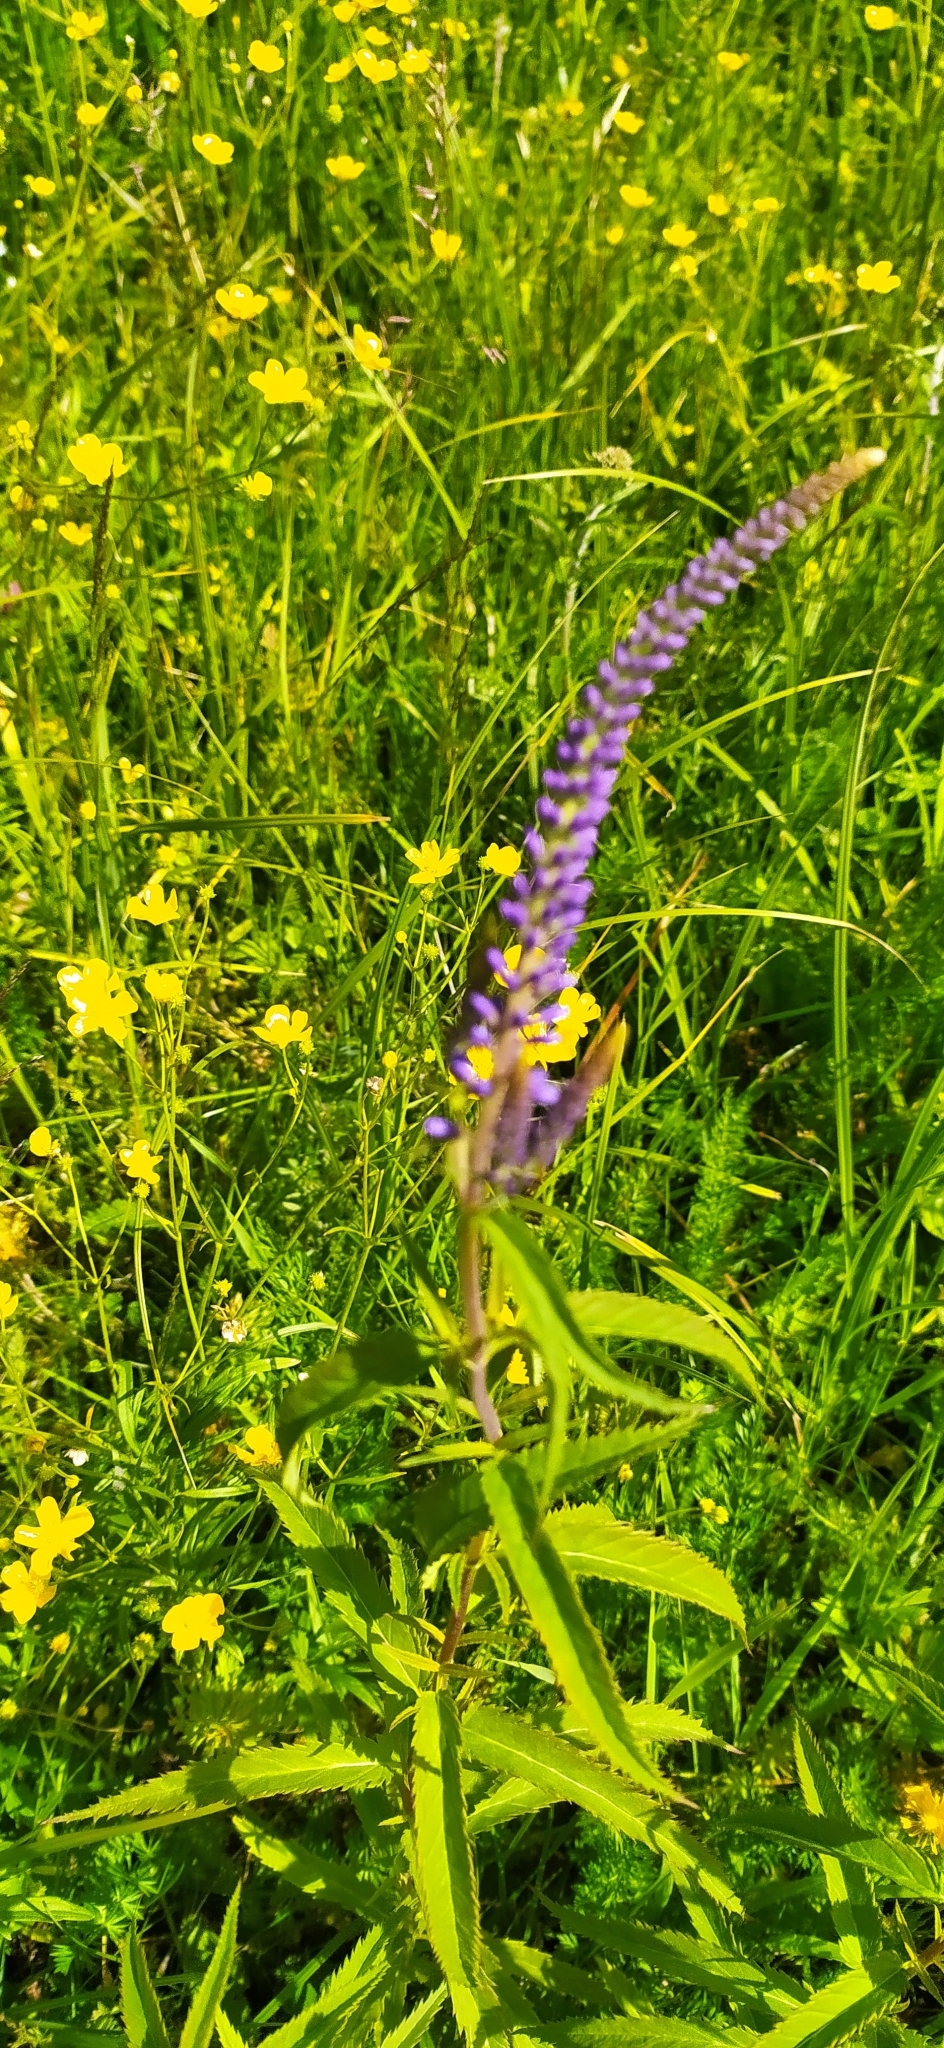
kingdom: Plantae
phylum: Tracheophyta
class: Magnoliopsida
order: Lamiales
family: Plantaginaceae
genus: Veronica
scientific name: Veronica longifolia
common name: Garden speedwell
